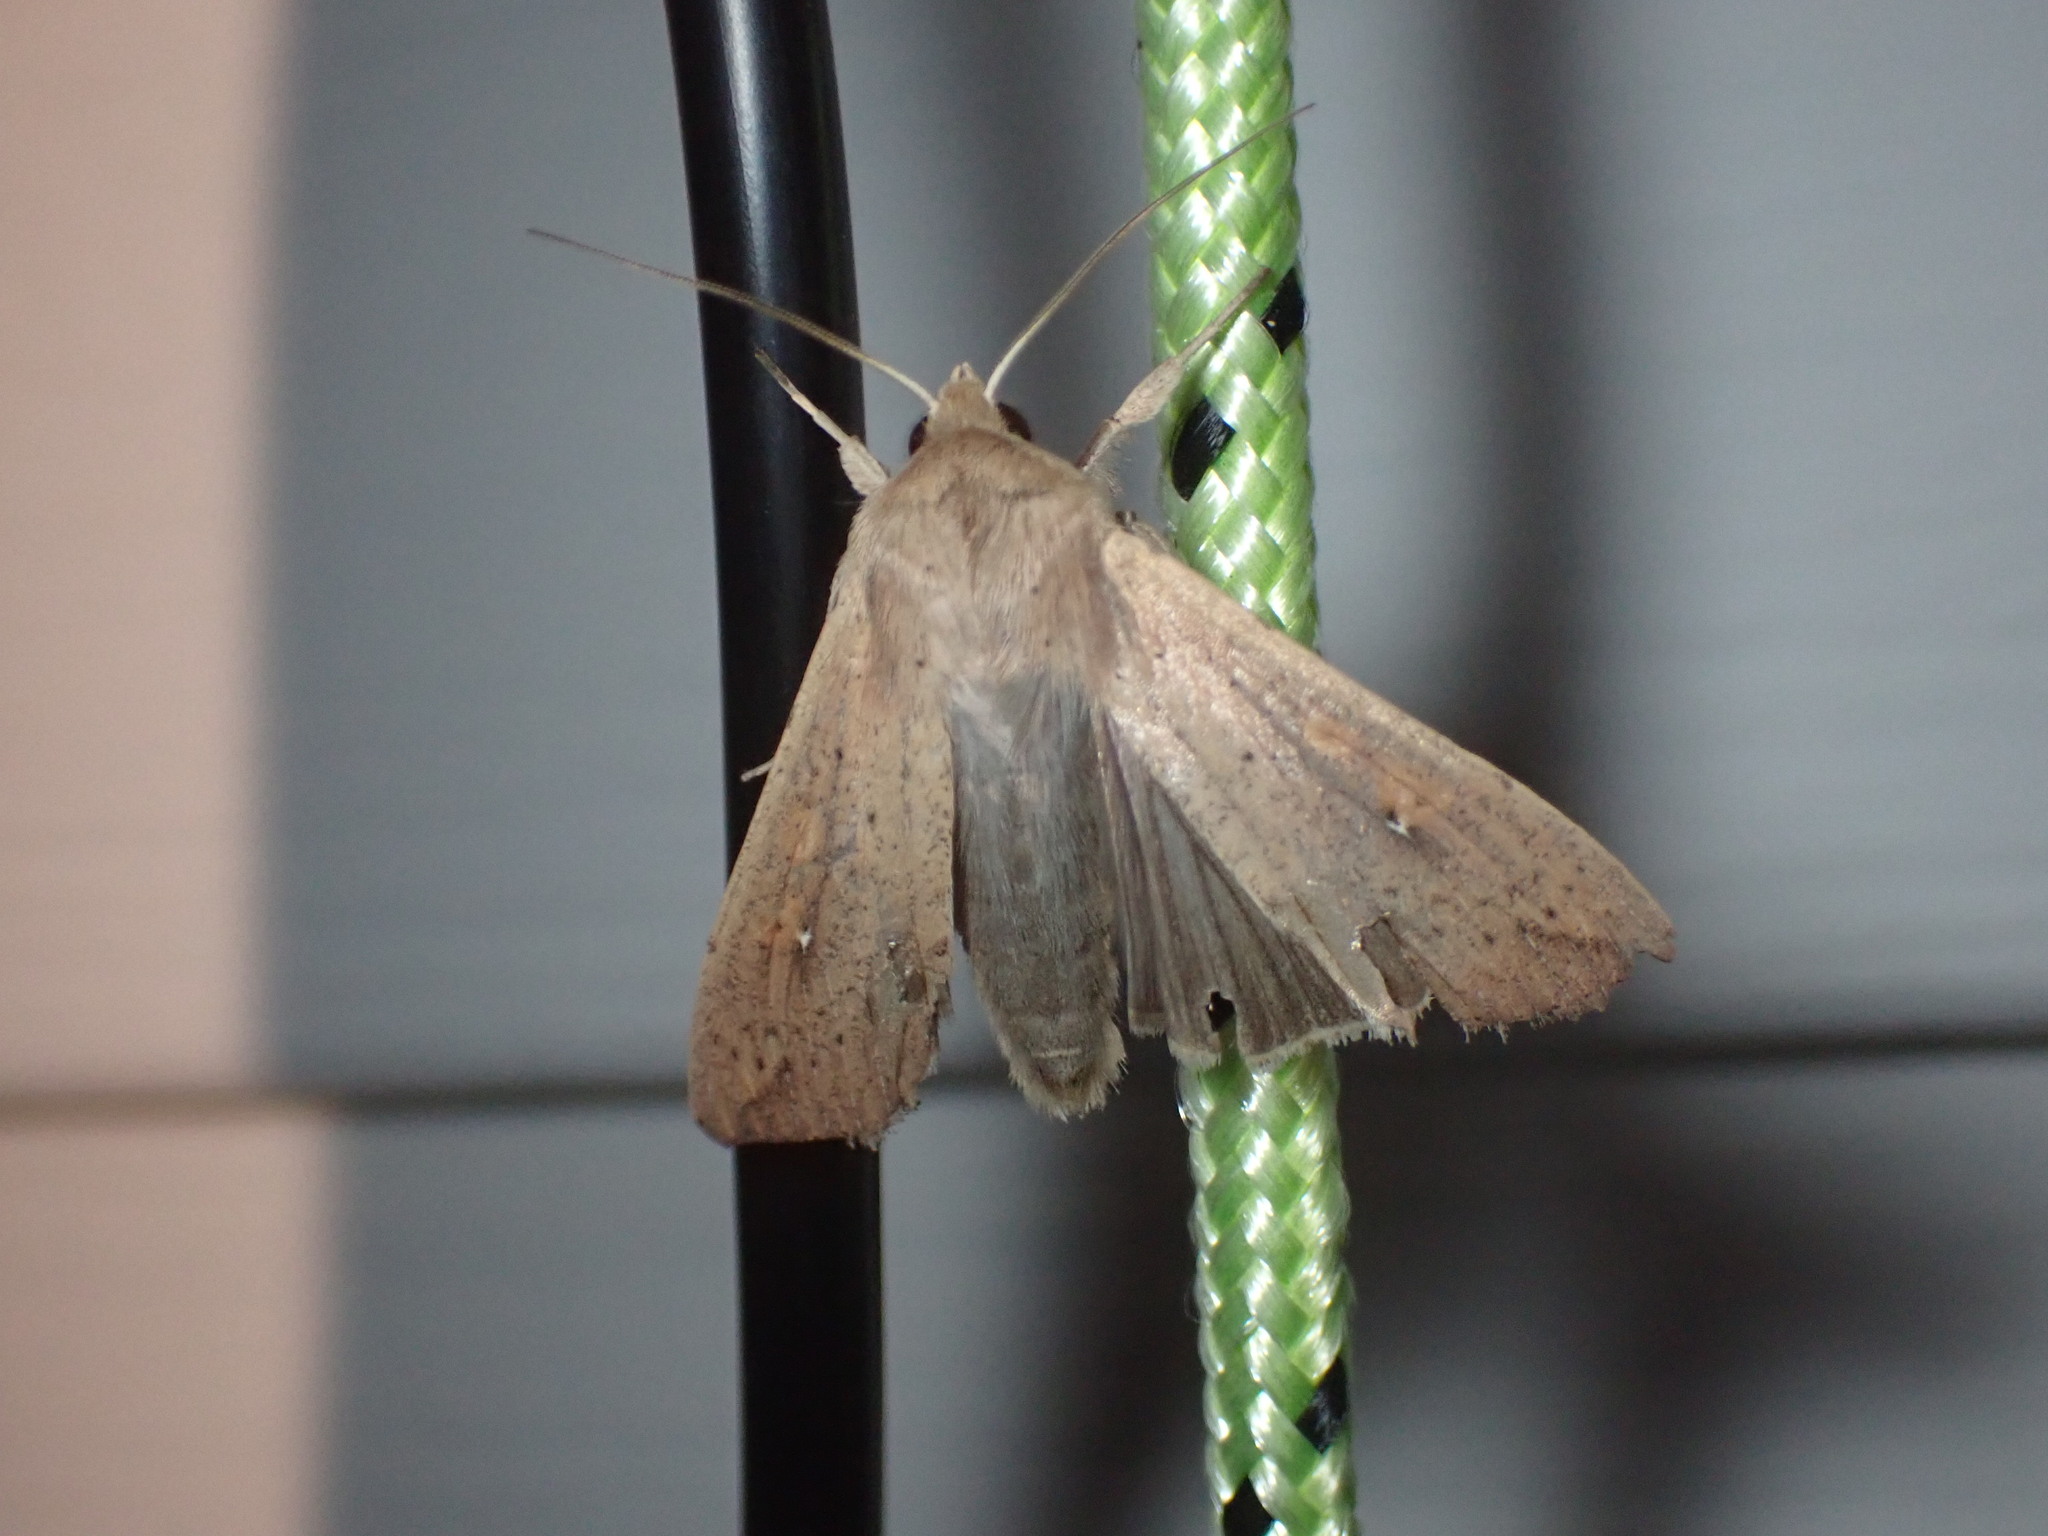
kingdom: Animalia
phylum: Arthropoda
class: Insecta
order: Lepidoptera
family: Noctuidae
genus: Mythimna
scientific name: Mythimna unipuncta
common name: White-speck
